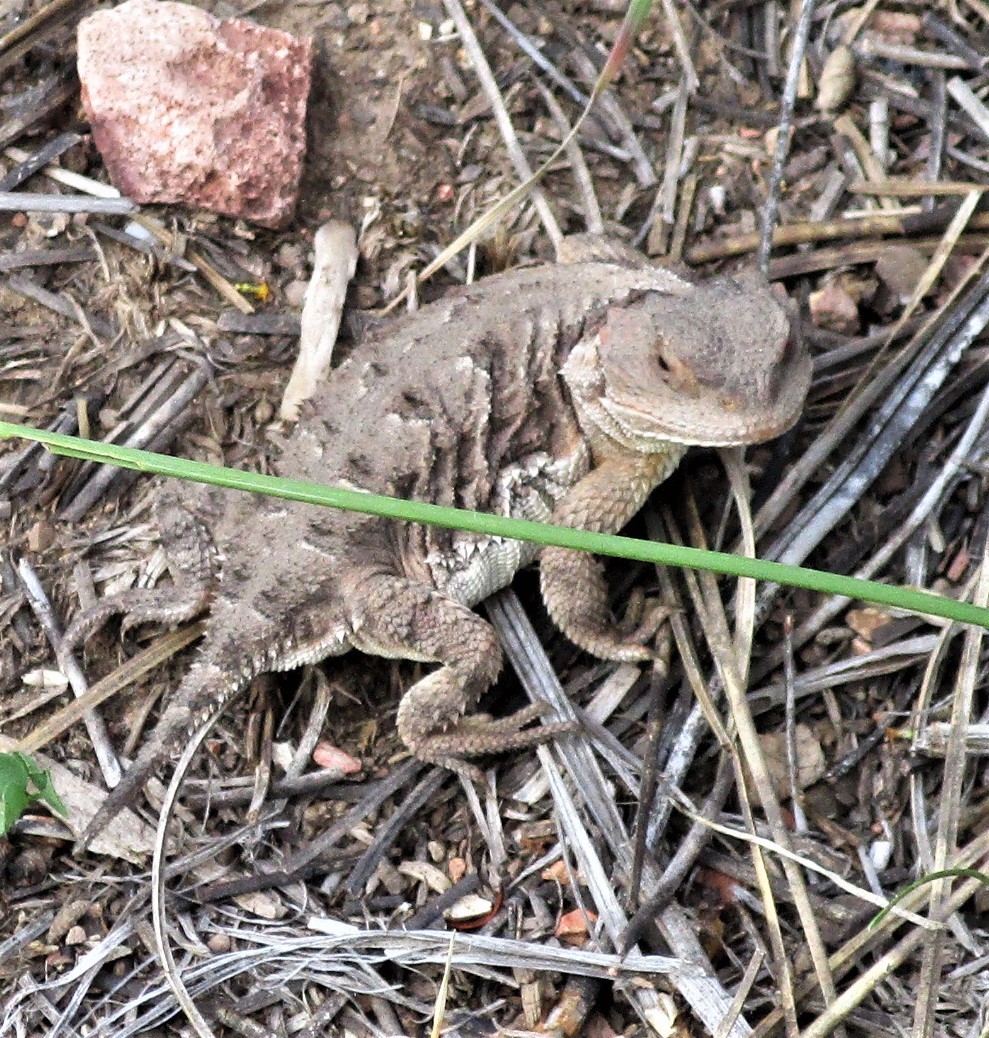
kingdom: Animalia
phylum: Chordata
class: Squamata
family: Phrynosomatidae
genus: Phrynosoma
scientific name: Phrynosoma hernandesi
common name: Greater short-horned lizard
